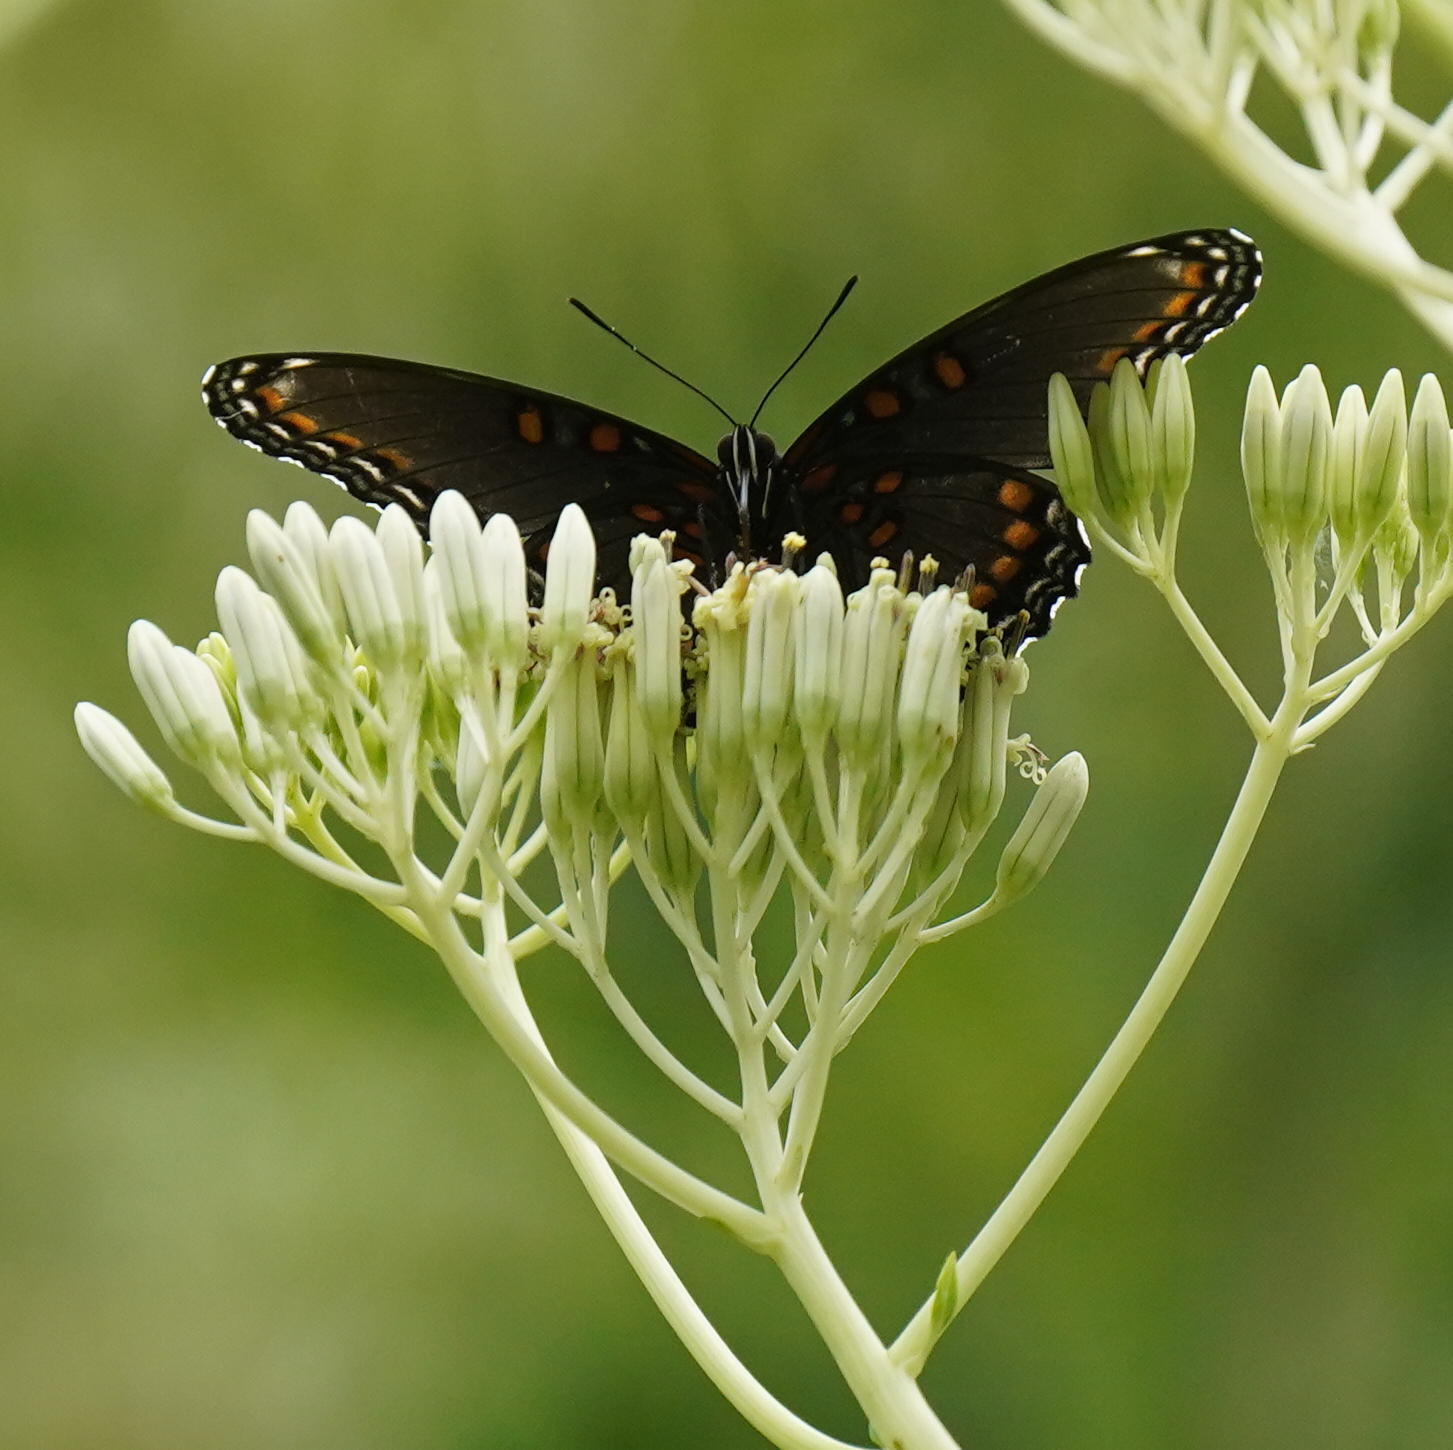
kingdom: Animalia
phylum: Arthropoda
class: Insecta
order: Lepidoptera
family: Nymphalidae
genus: Limenitis
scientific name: Limenitis astyanax
